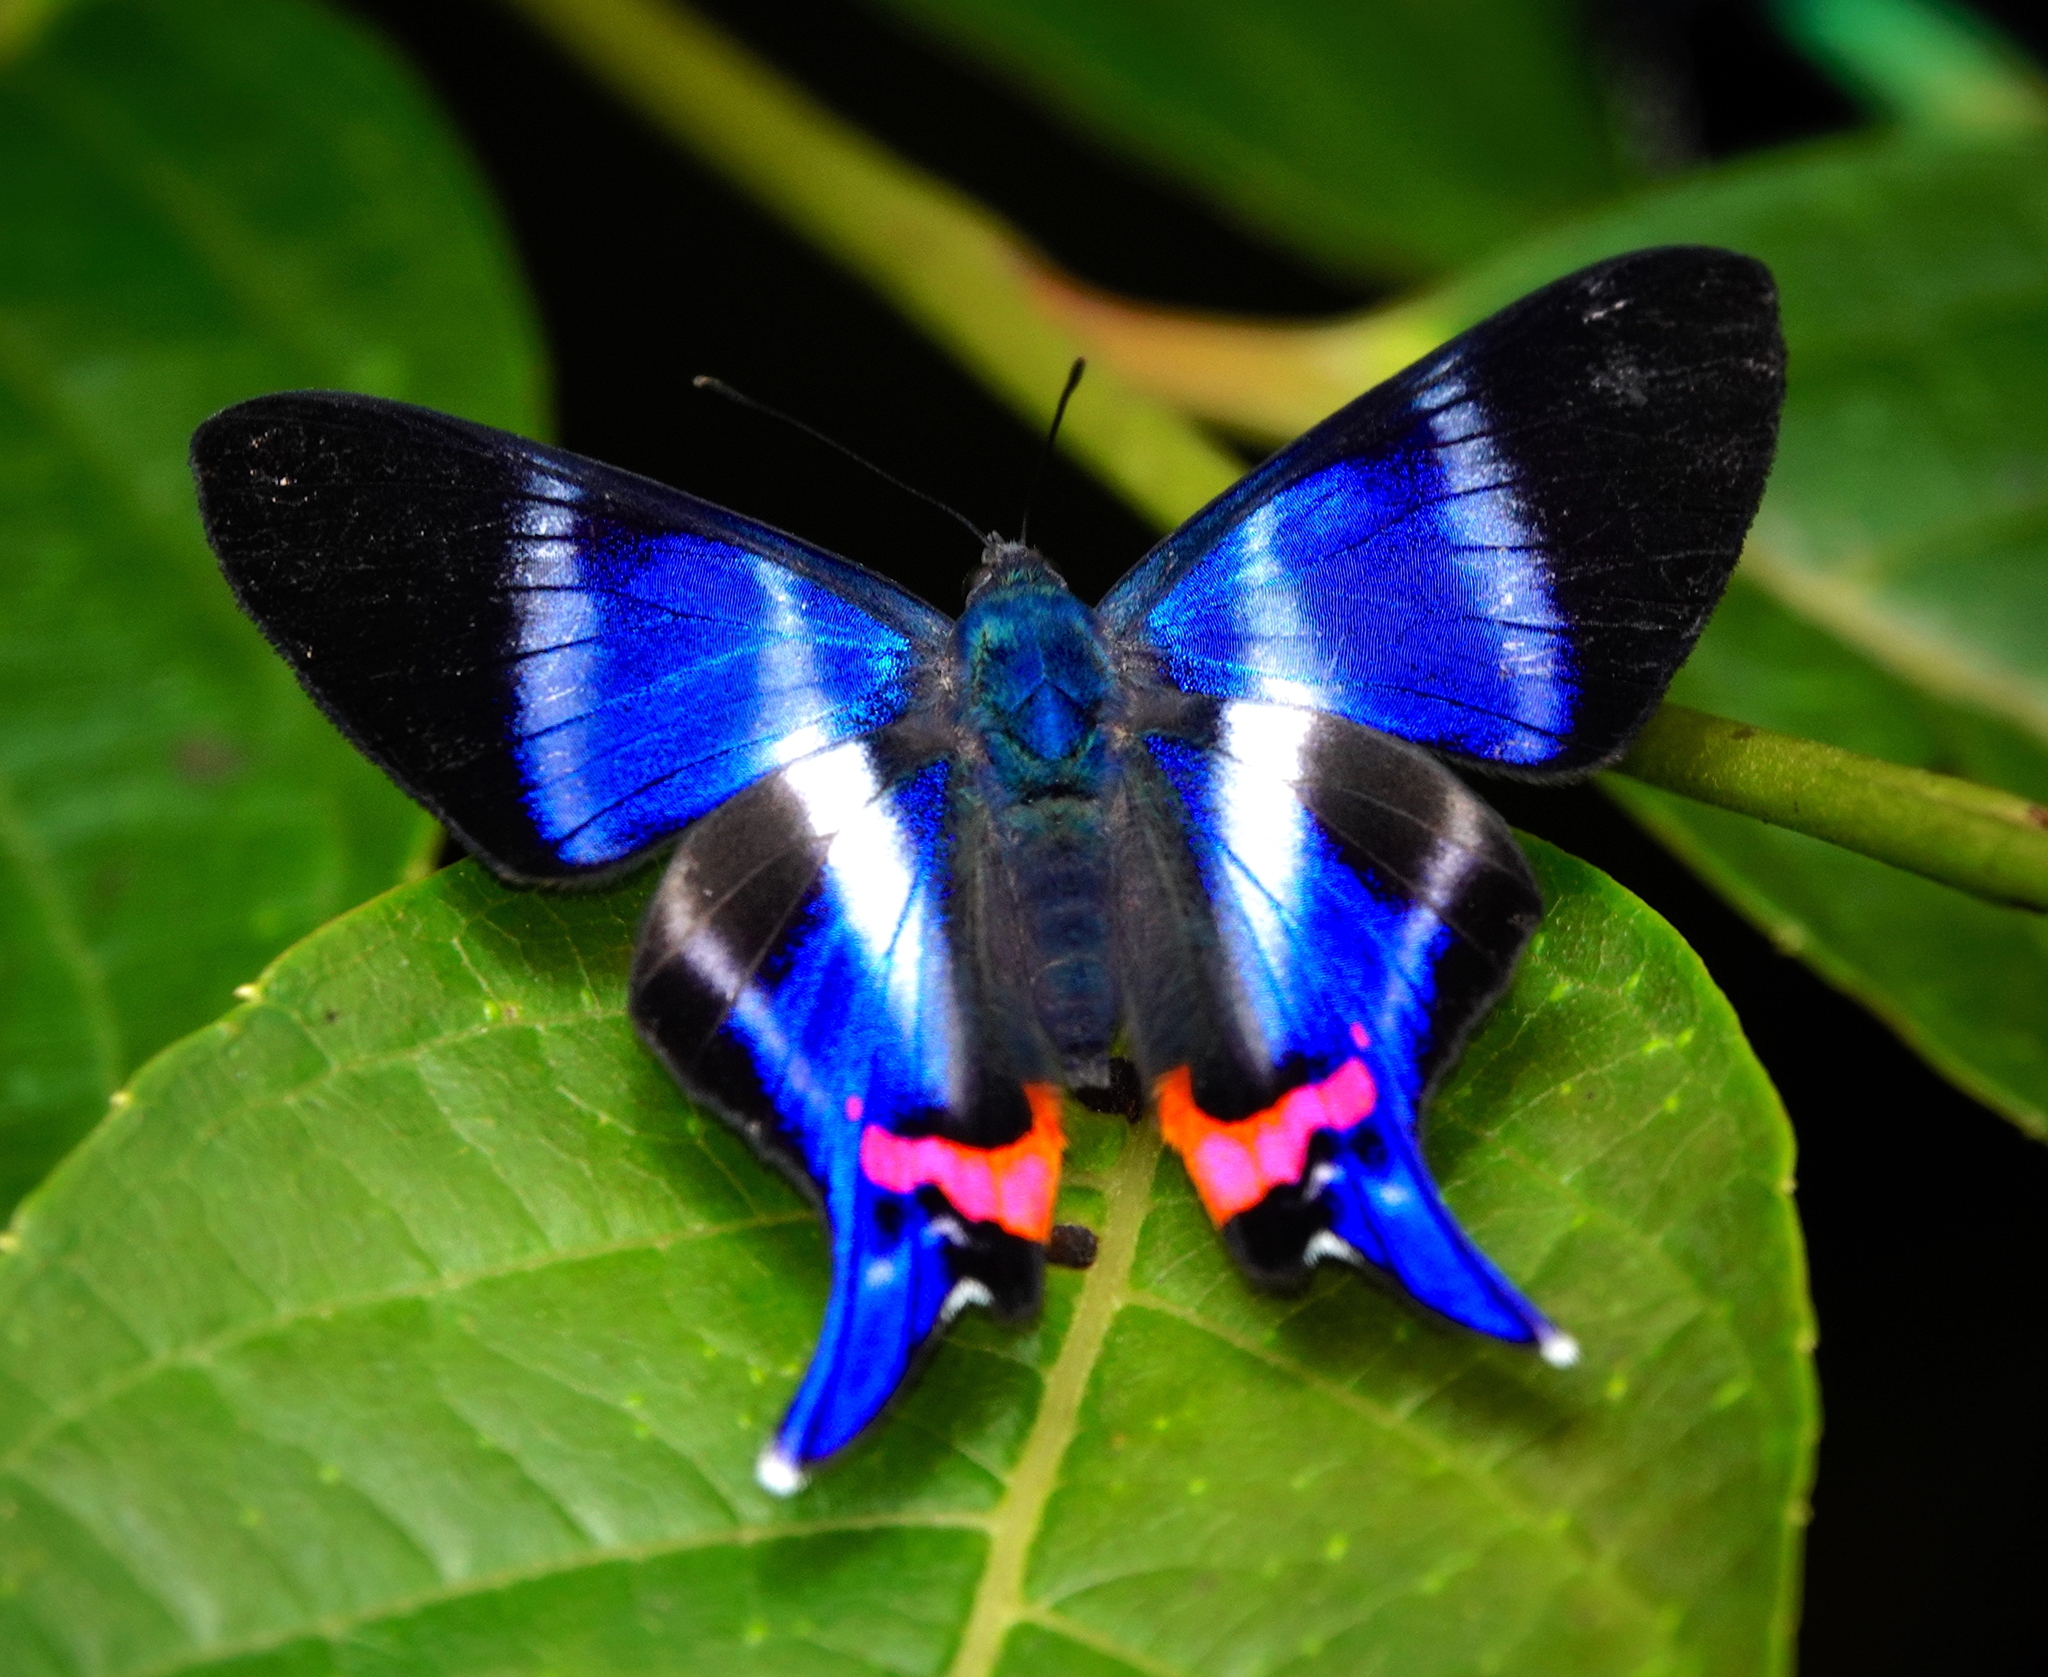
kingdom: Animalia
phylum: Arthropoda
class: Insecta
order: Lepidoptera
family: Riodinidae
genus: Rhetus
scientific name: Rhetus dysonii
